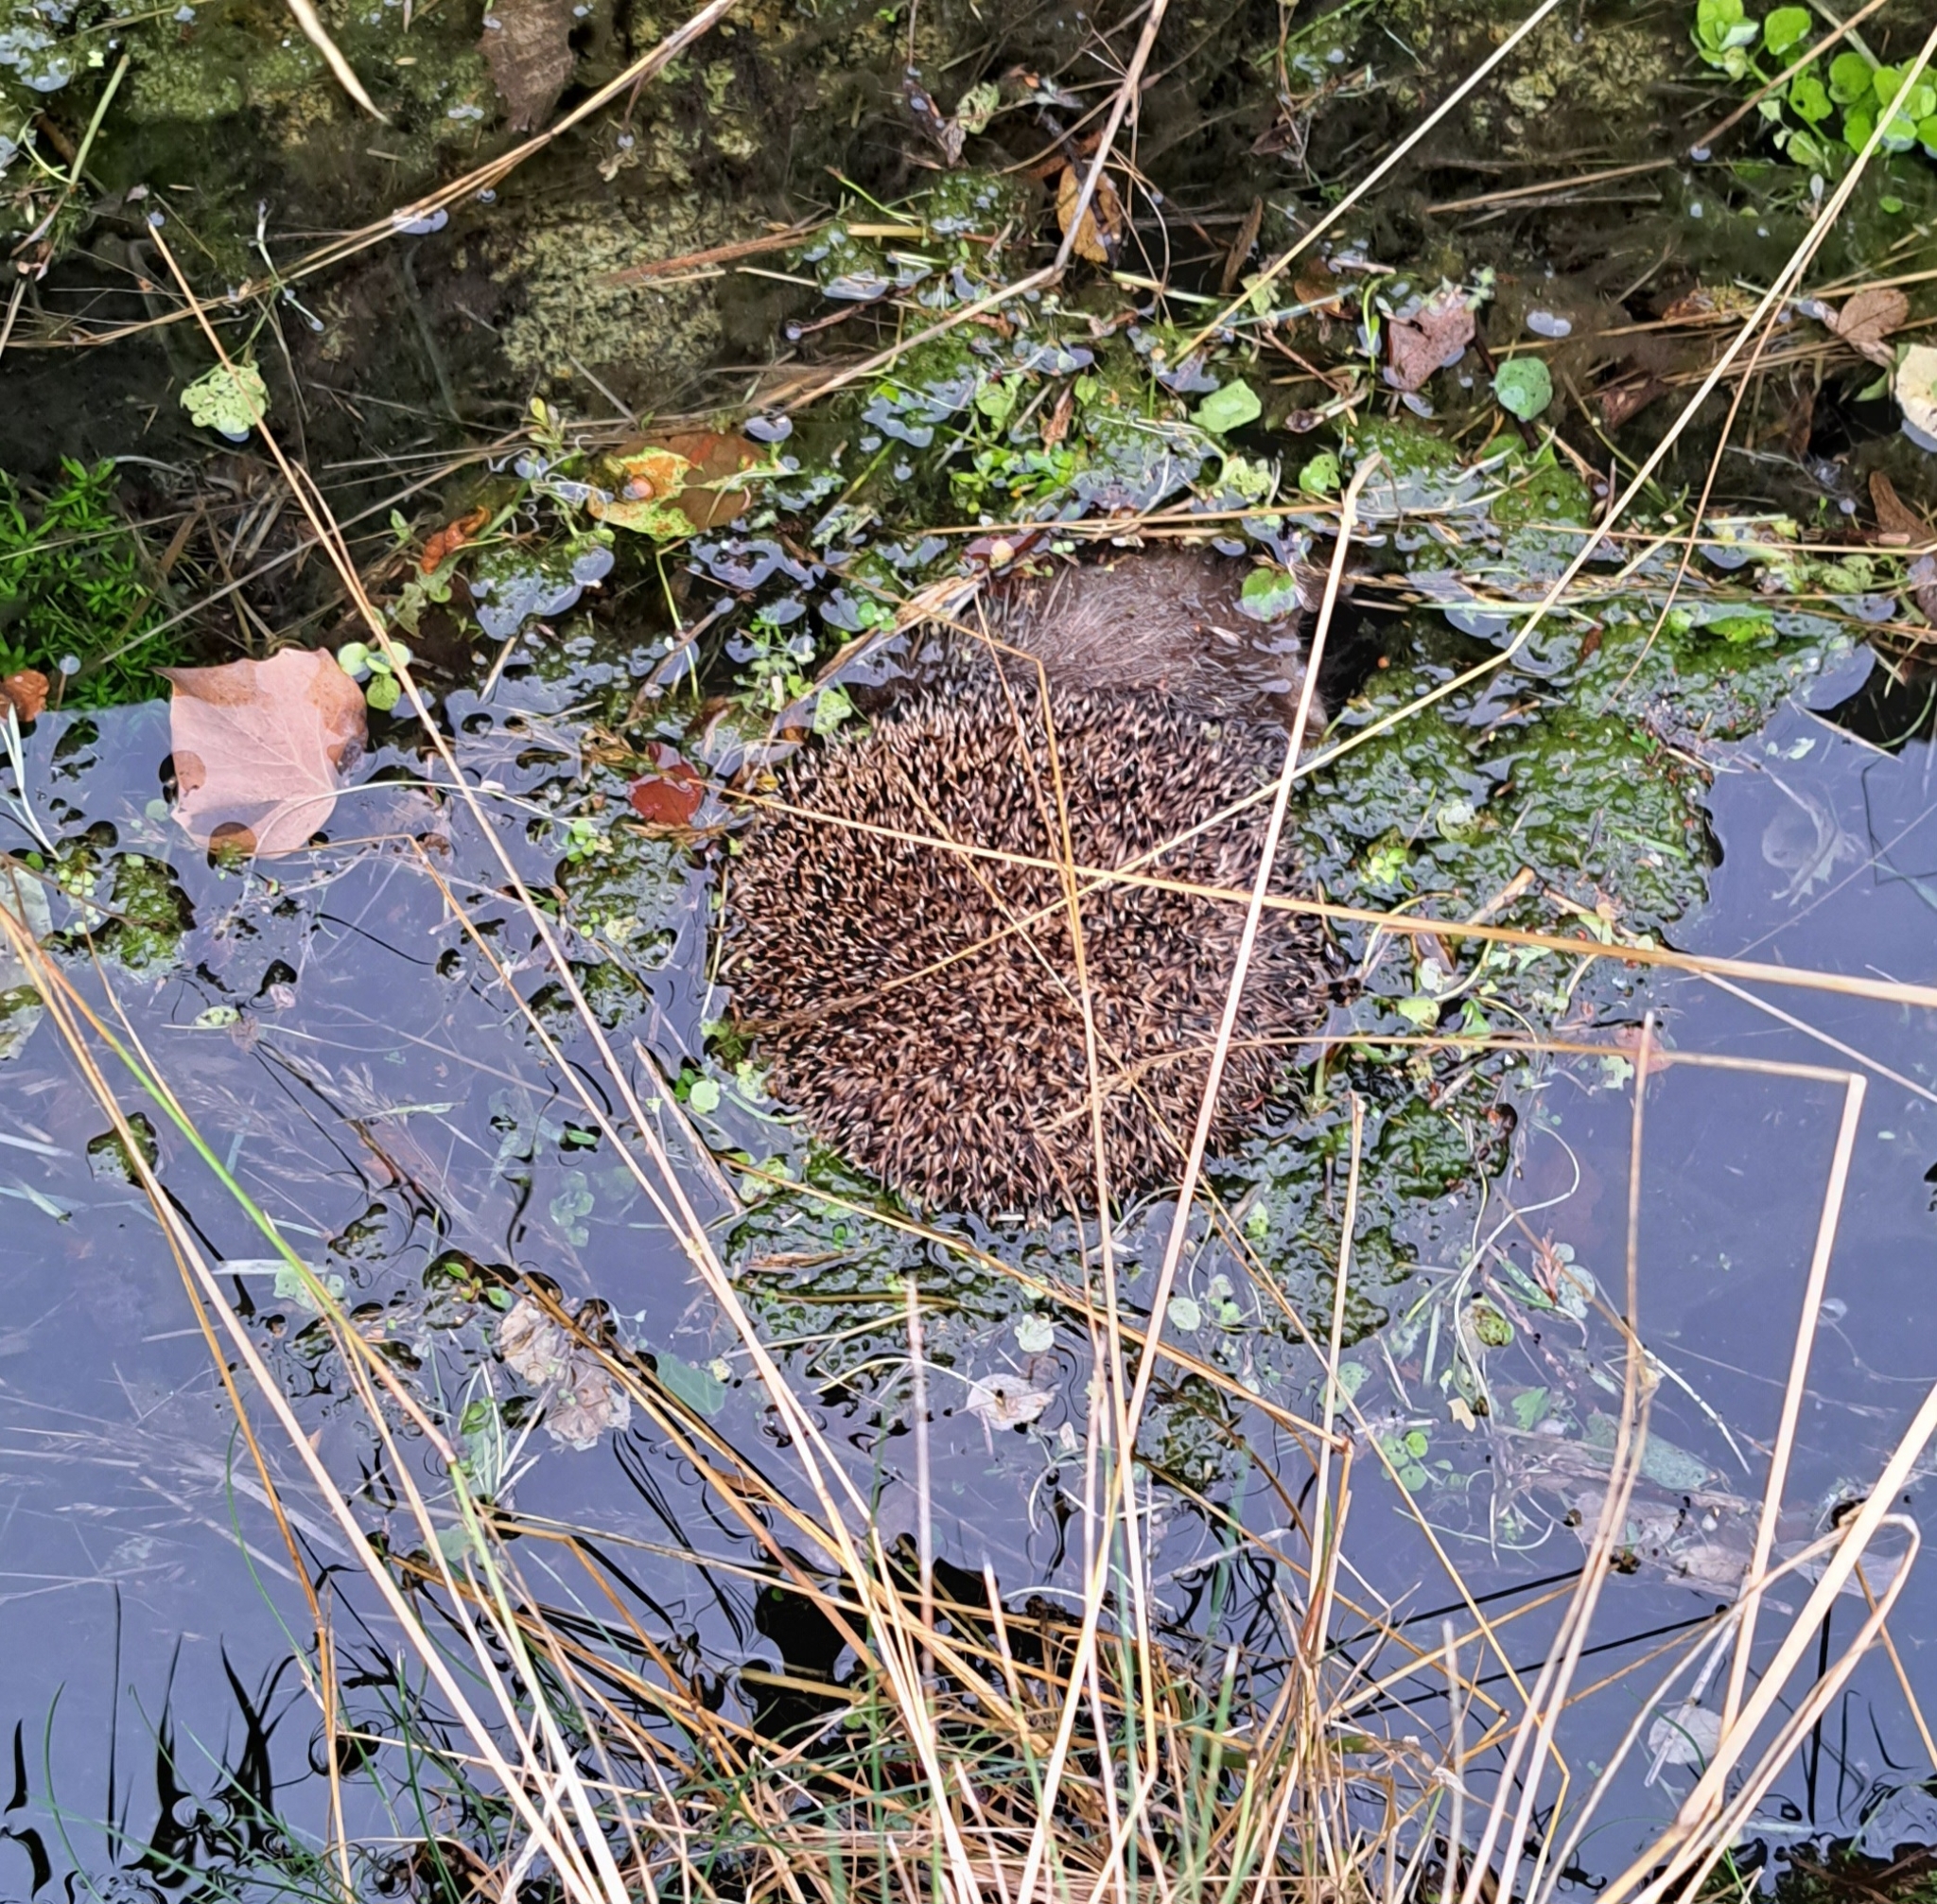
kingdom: Animalia
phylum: Chordata
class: Mammalia
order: Erinaceomorpha
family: Erinaceidae
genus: Erinaceus
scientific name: Erinaceus europaeus
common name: West european hedgehog
